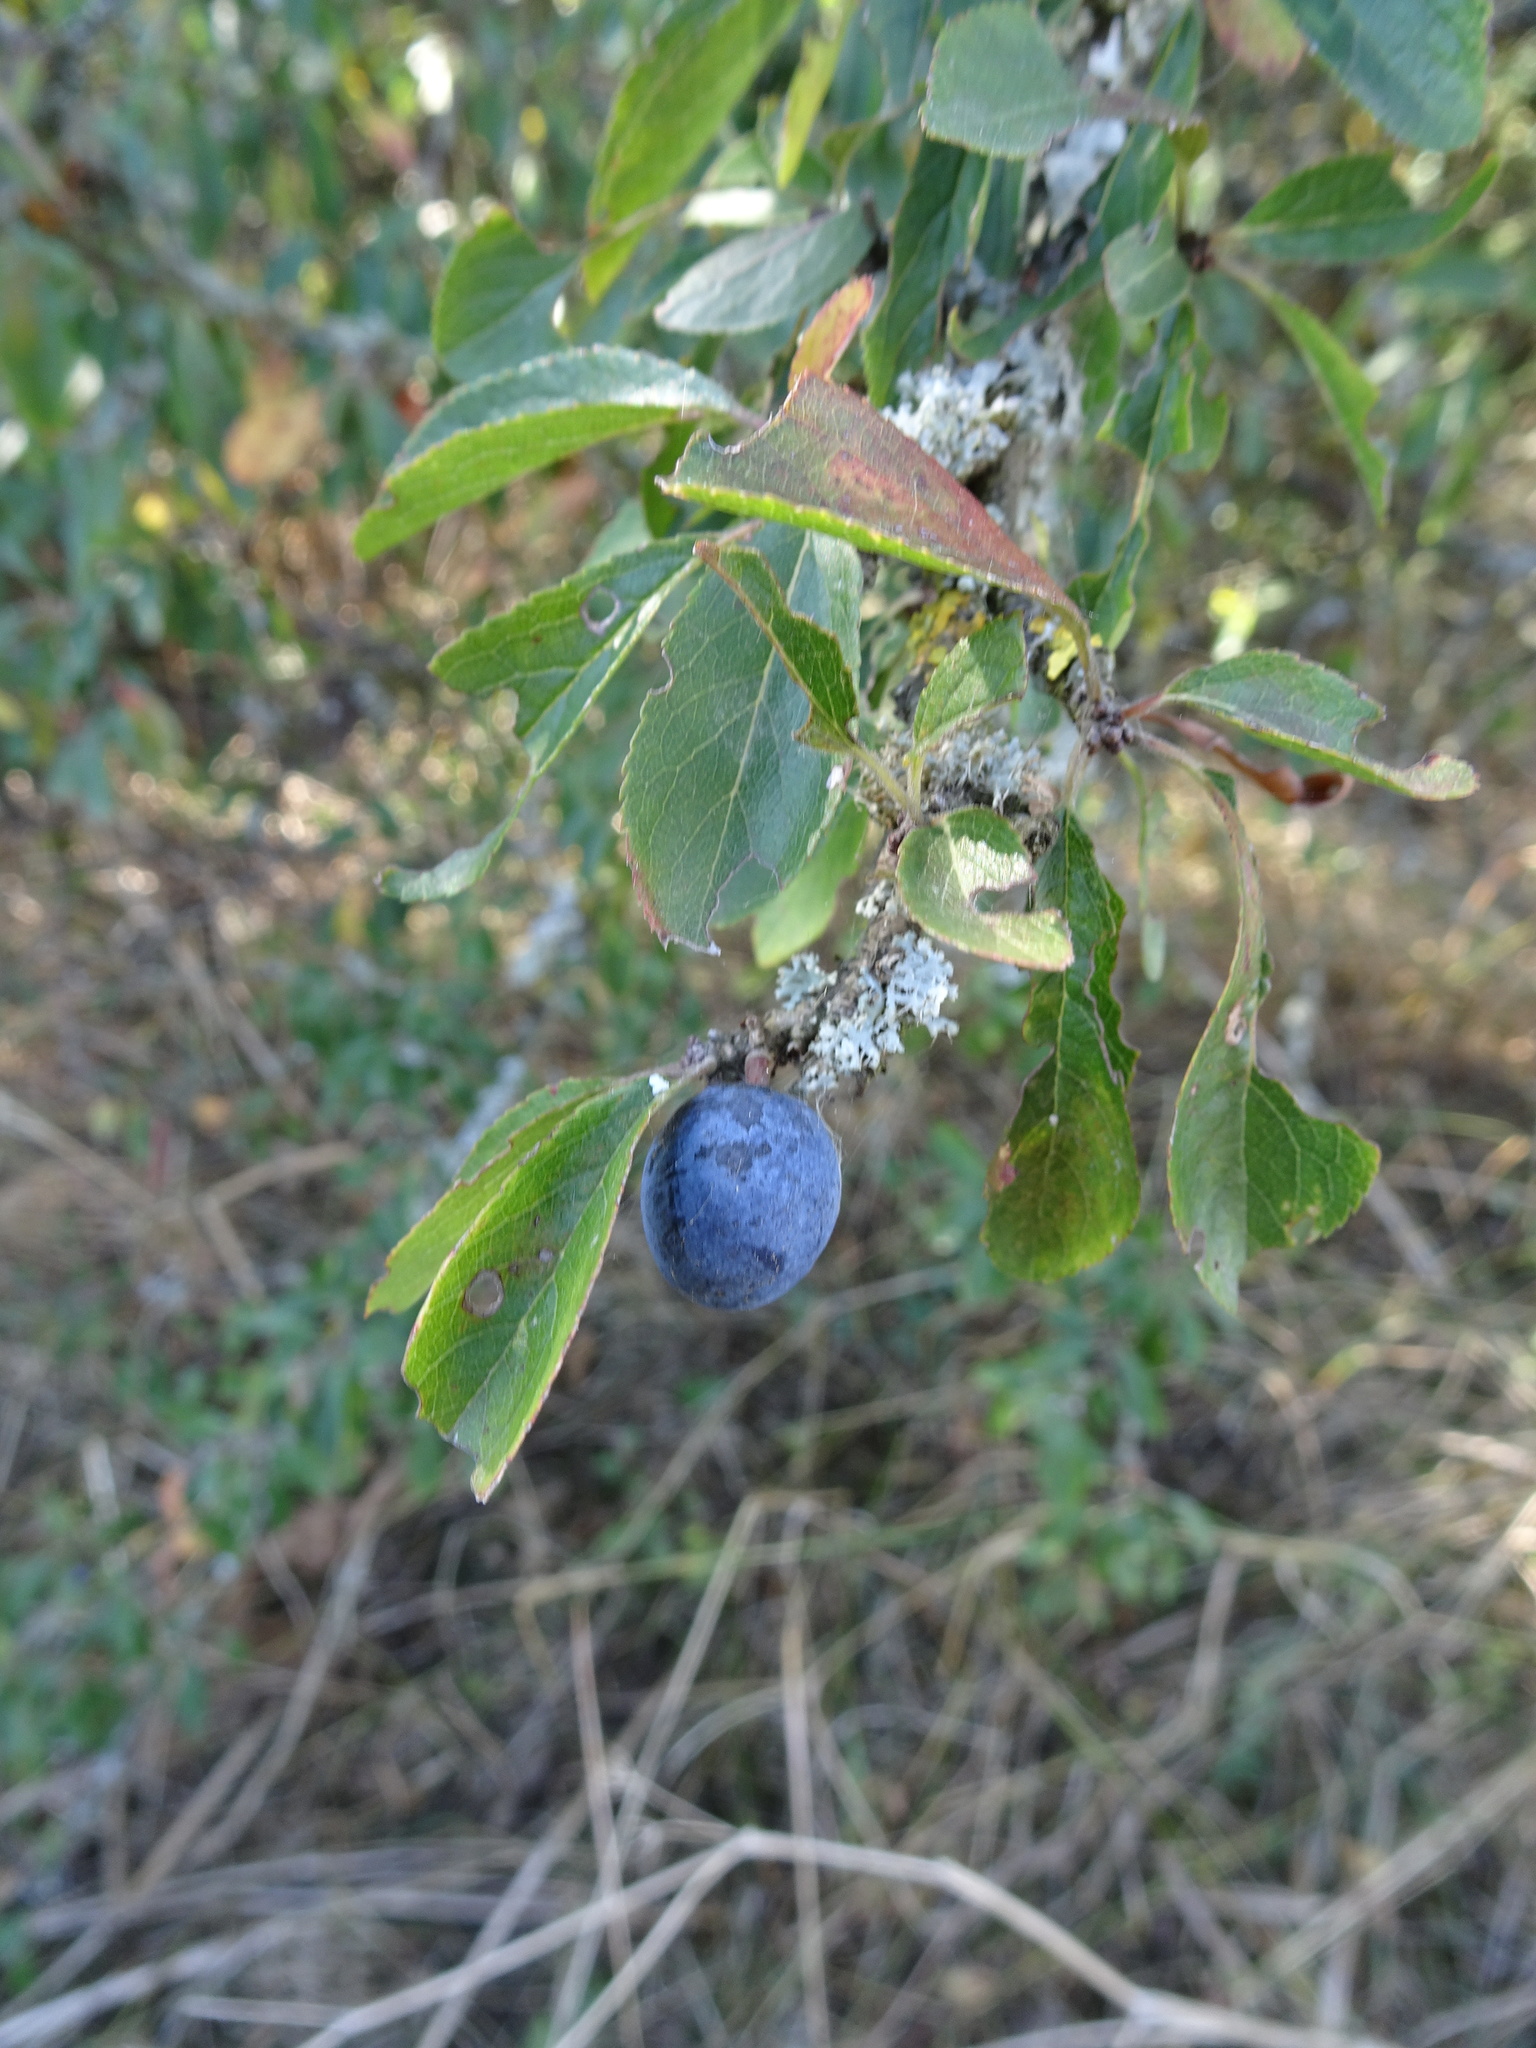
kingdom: Plantae
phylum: Tracheophyta
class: Magnoliopsida
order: Rosales
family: Rosaceae
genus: Prunus
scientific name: Prunus spinosa
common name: Blackthorn
